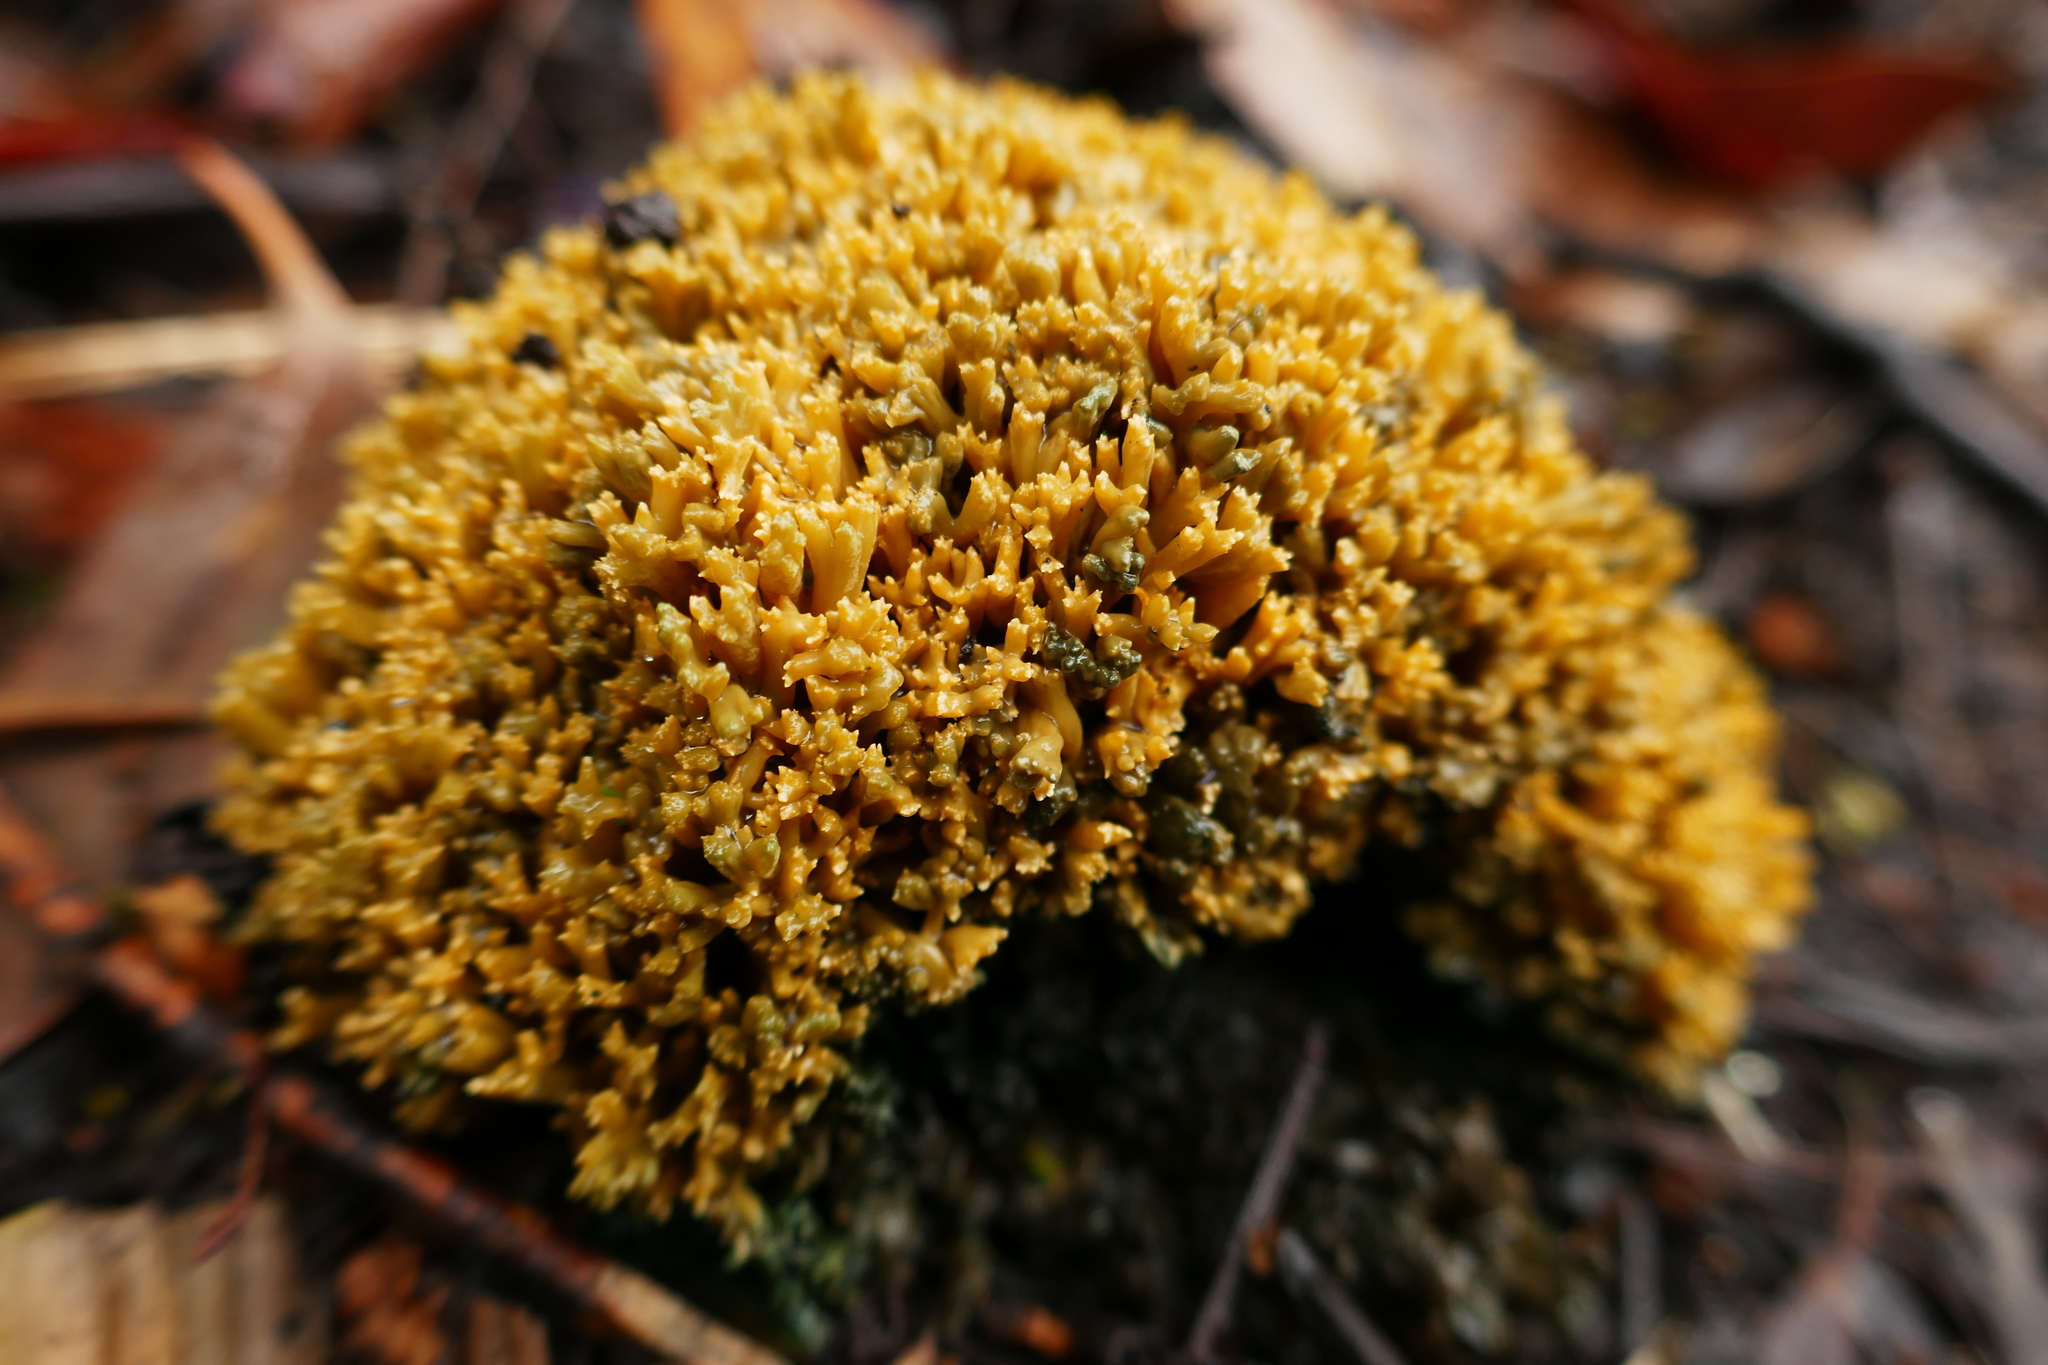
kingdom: Fungi
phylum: Basidiomycota
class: Agaricomycetes
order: Gomphales
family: Gomphaceae
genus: Phaeoclavulina
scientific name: Phaeoclavulina
